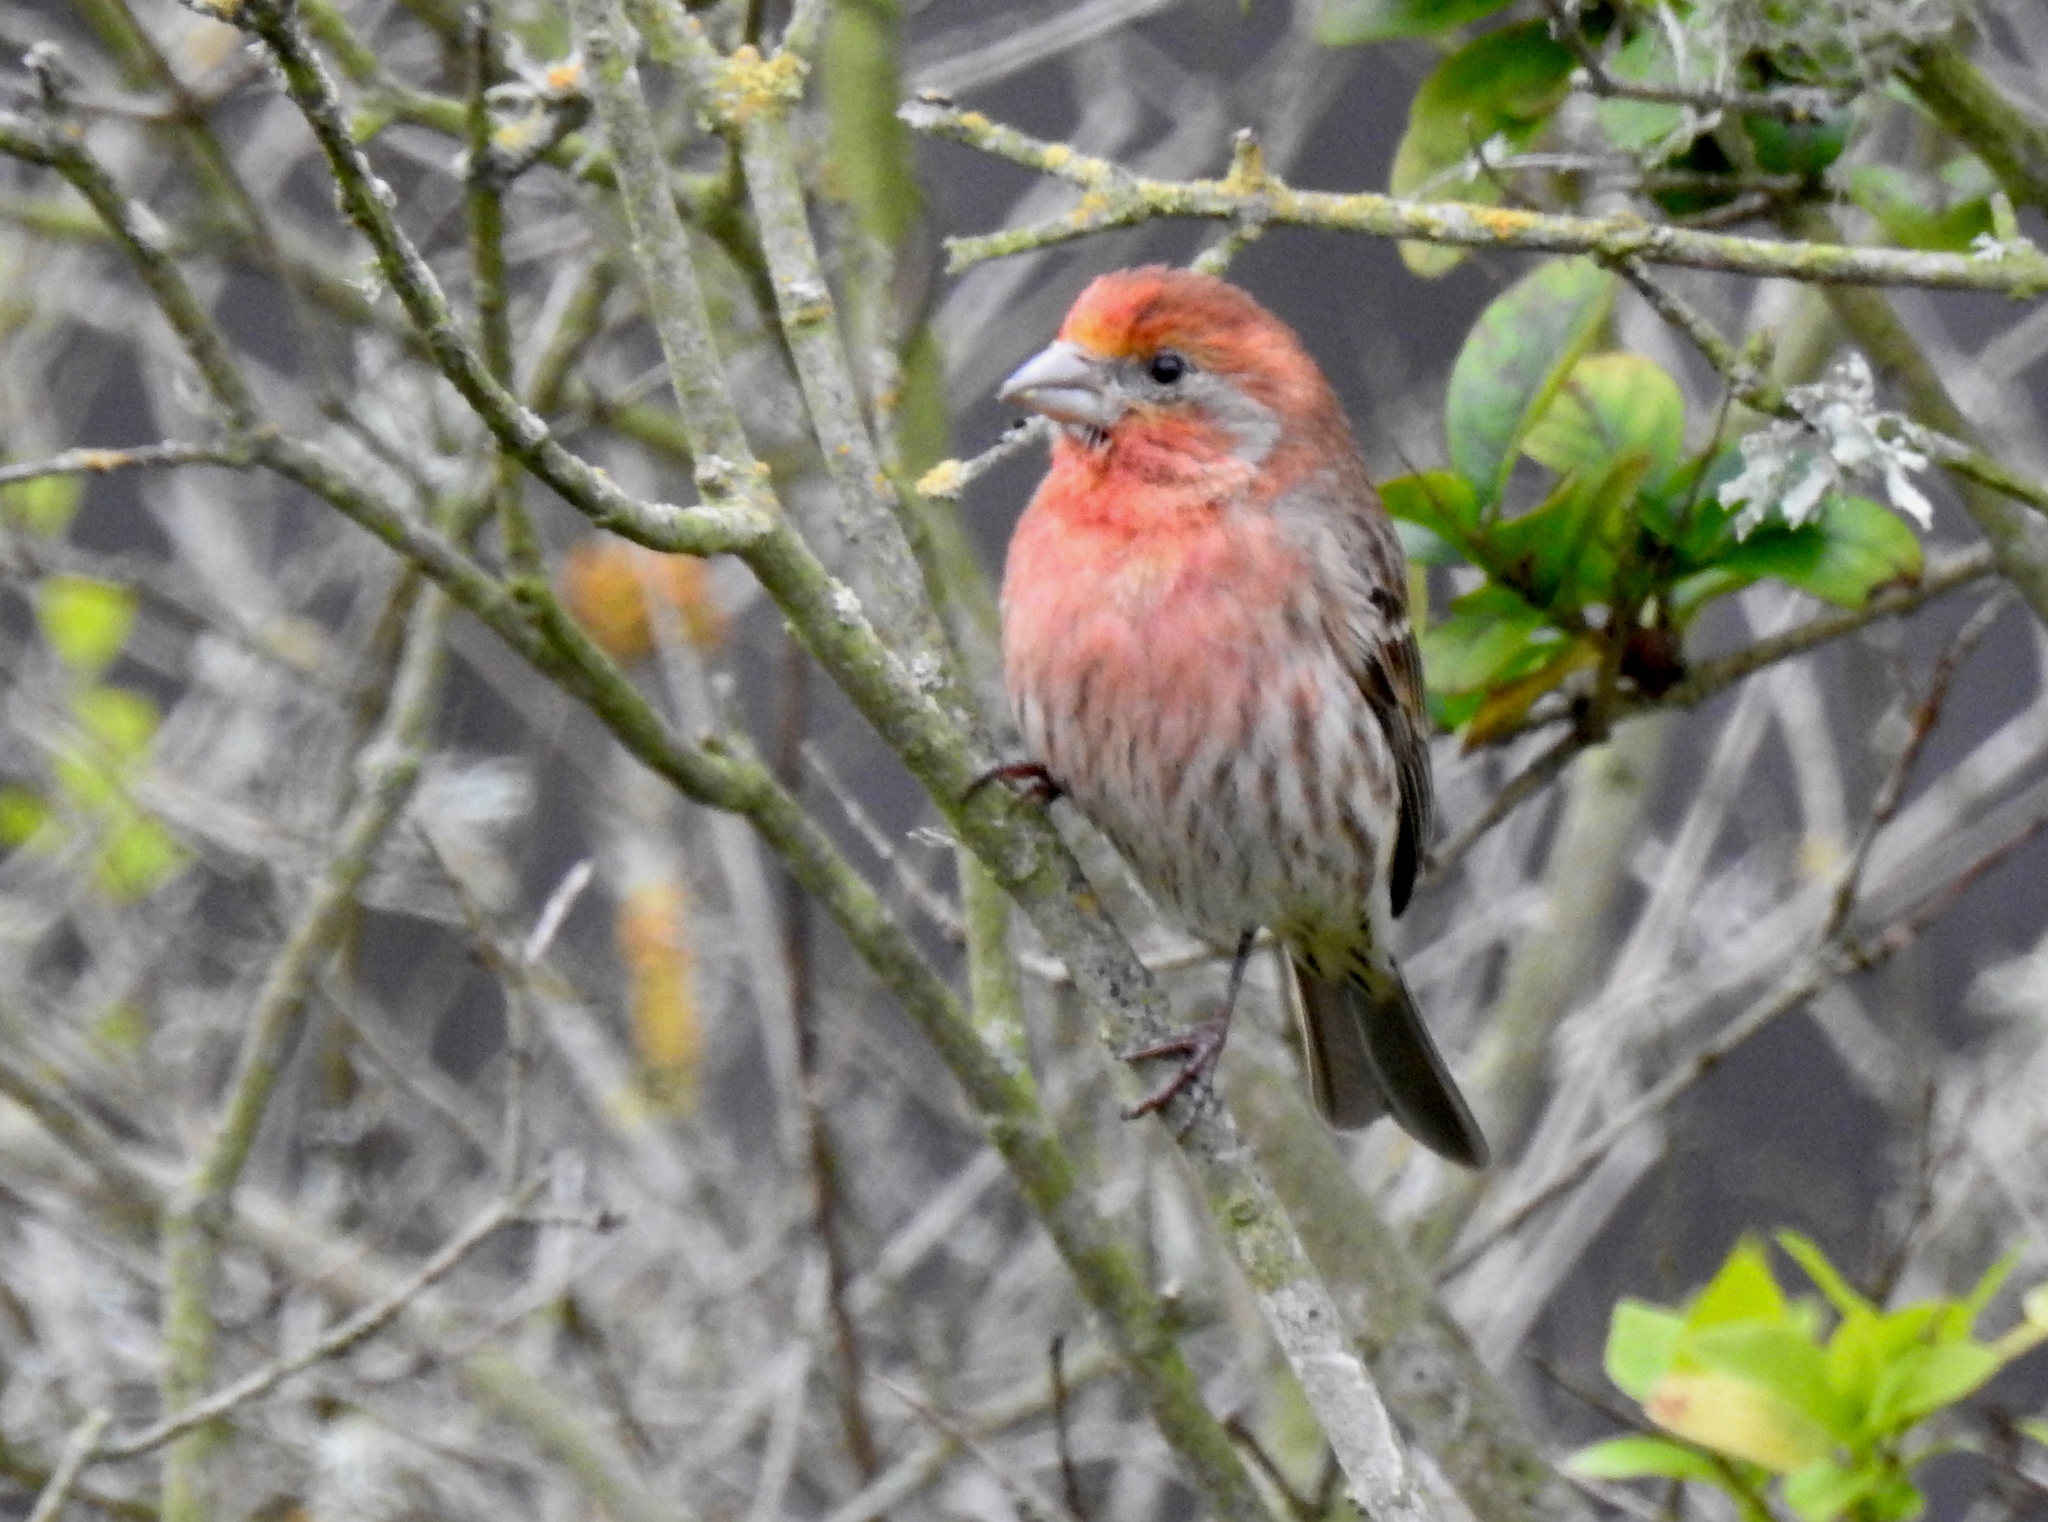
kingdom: Animalia
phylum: Chordata
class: Aves
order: Passeriformes
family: Fringillidae
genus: Haemorhous
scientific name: Haemorhous mexicanus
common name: House finch
